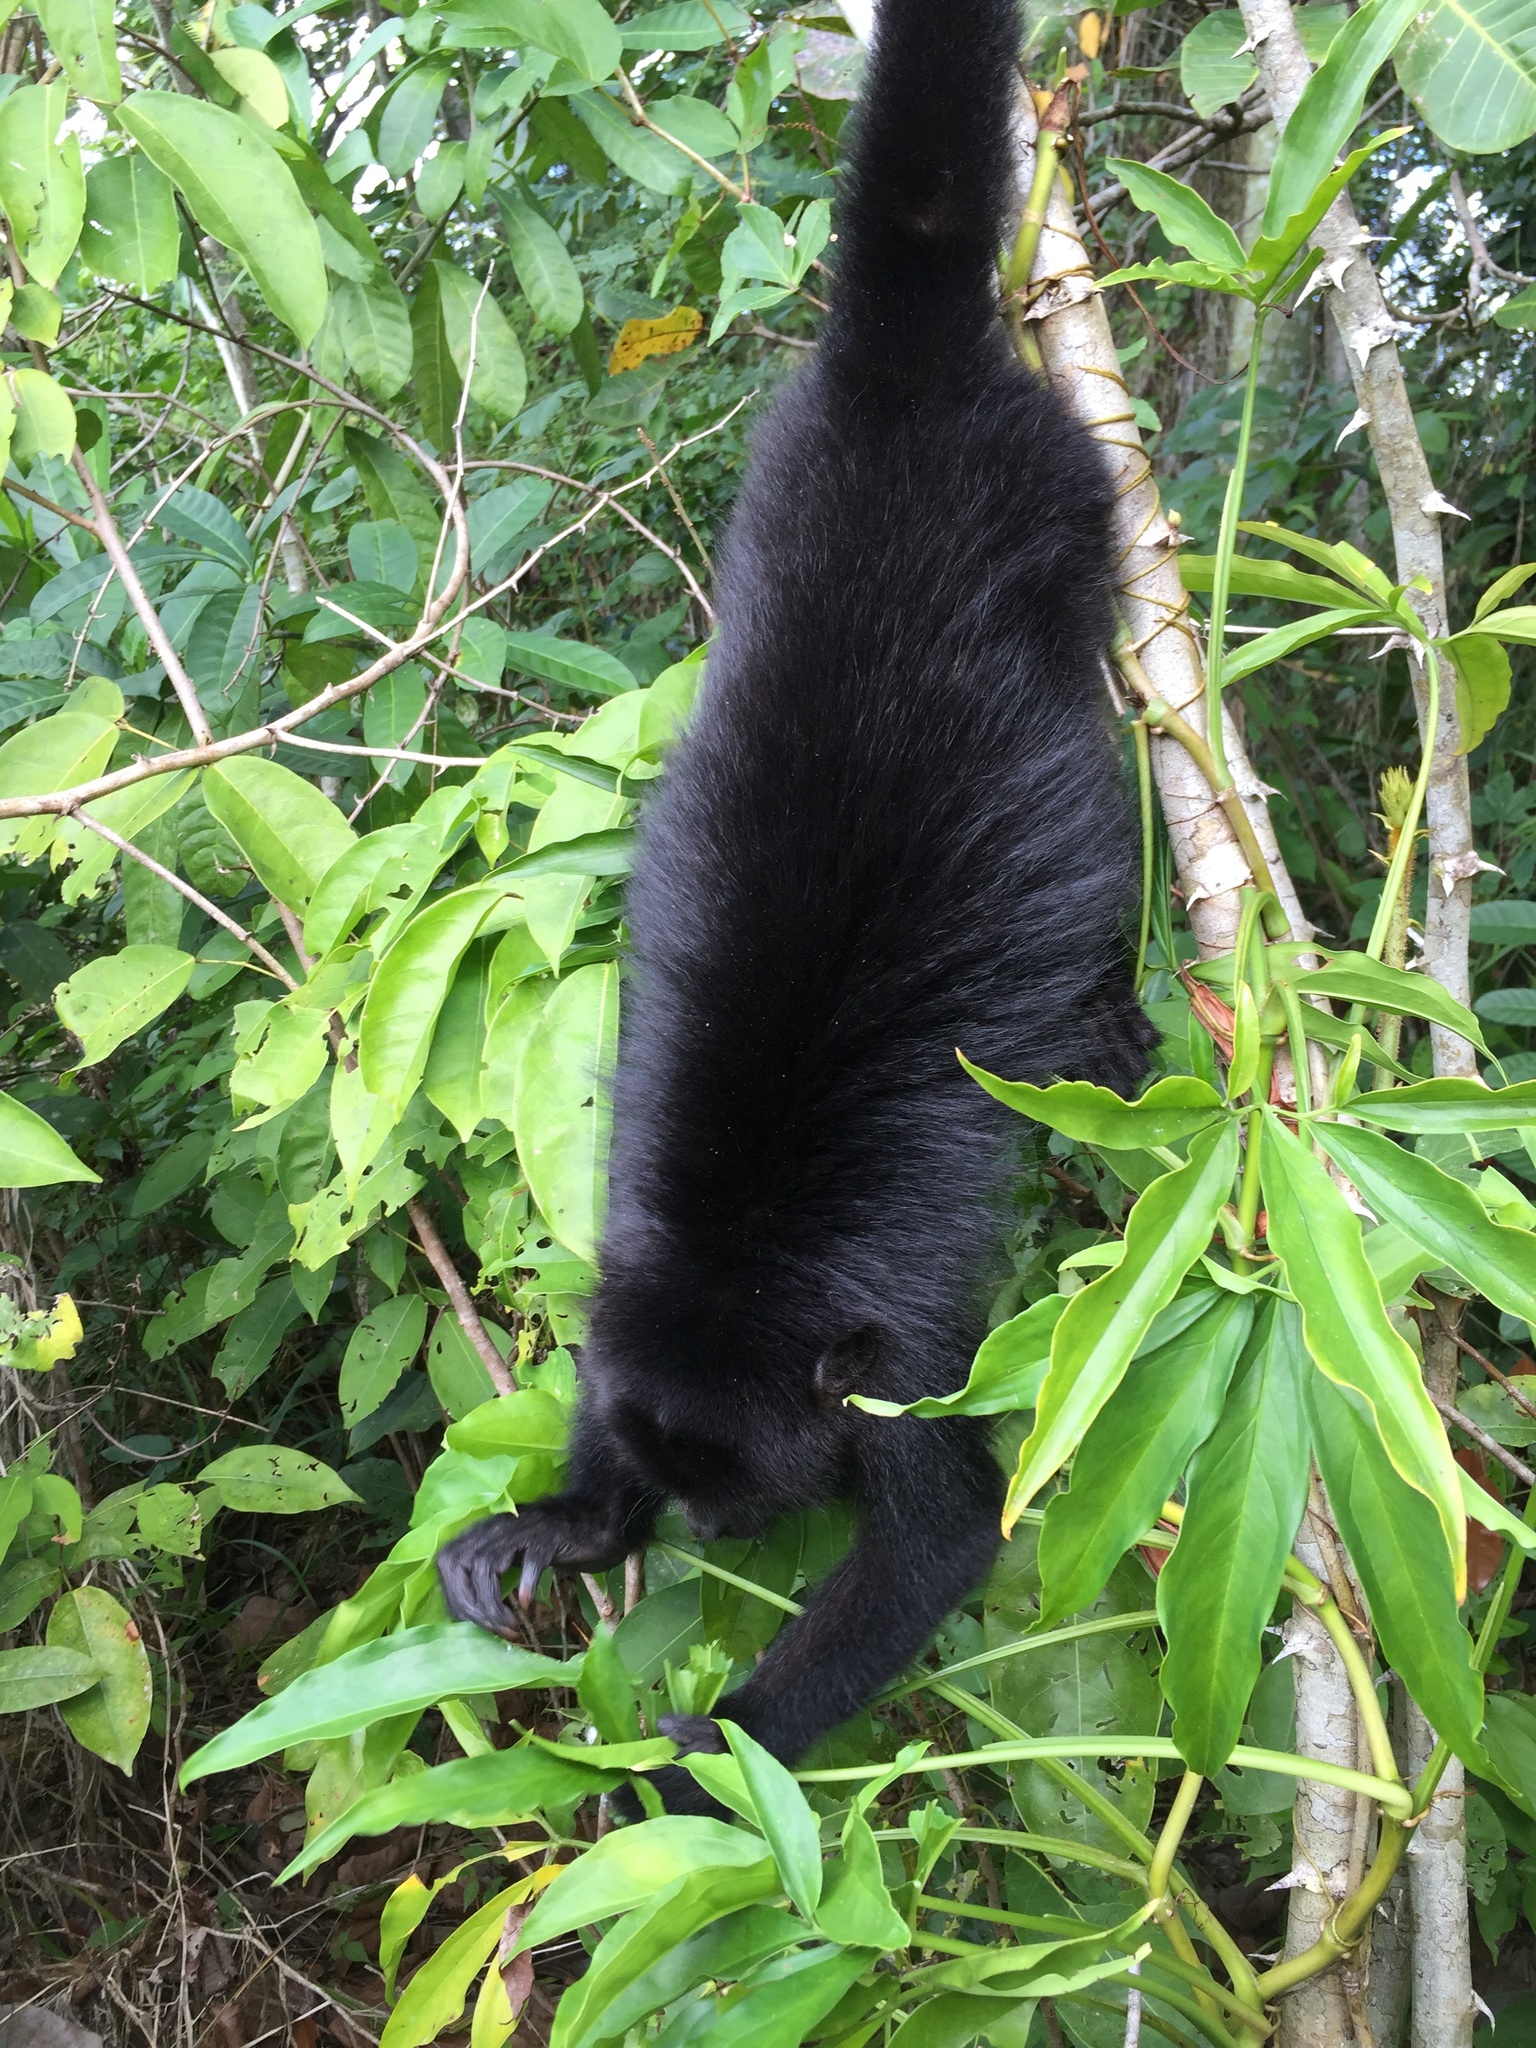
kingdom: Animalia
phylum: Chordata
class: Mammalia
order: Primates
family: Atelidae
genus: Alouatta
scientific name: Alouatta pigra
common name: Guatemalan black howler
